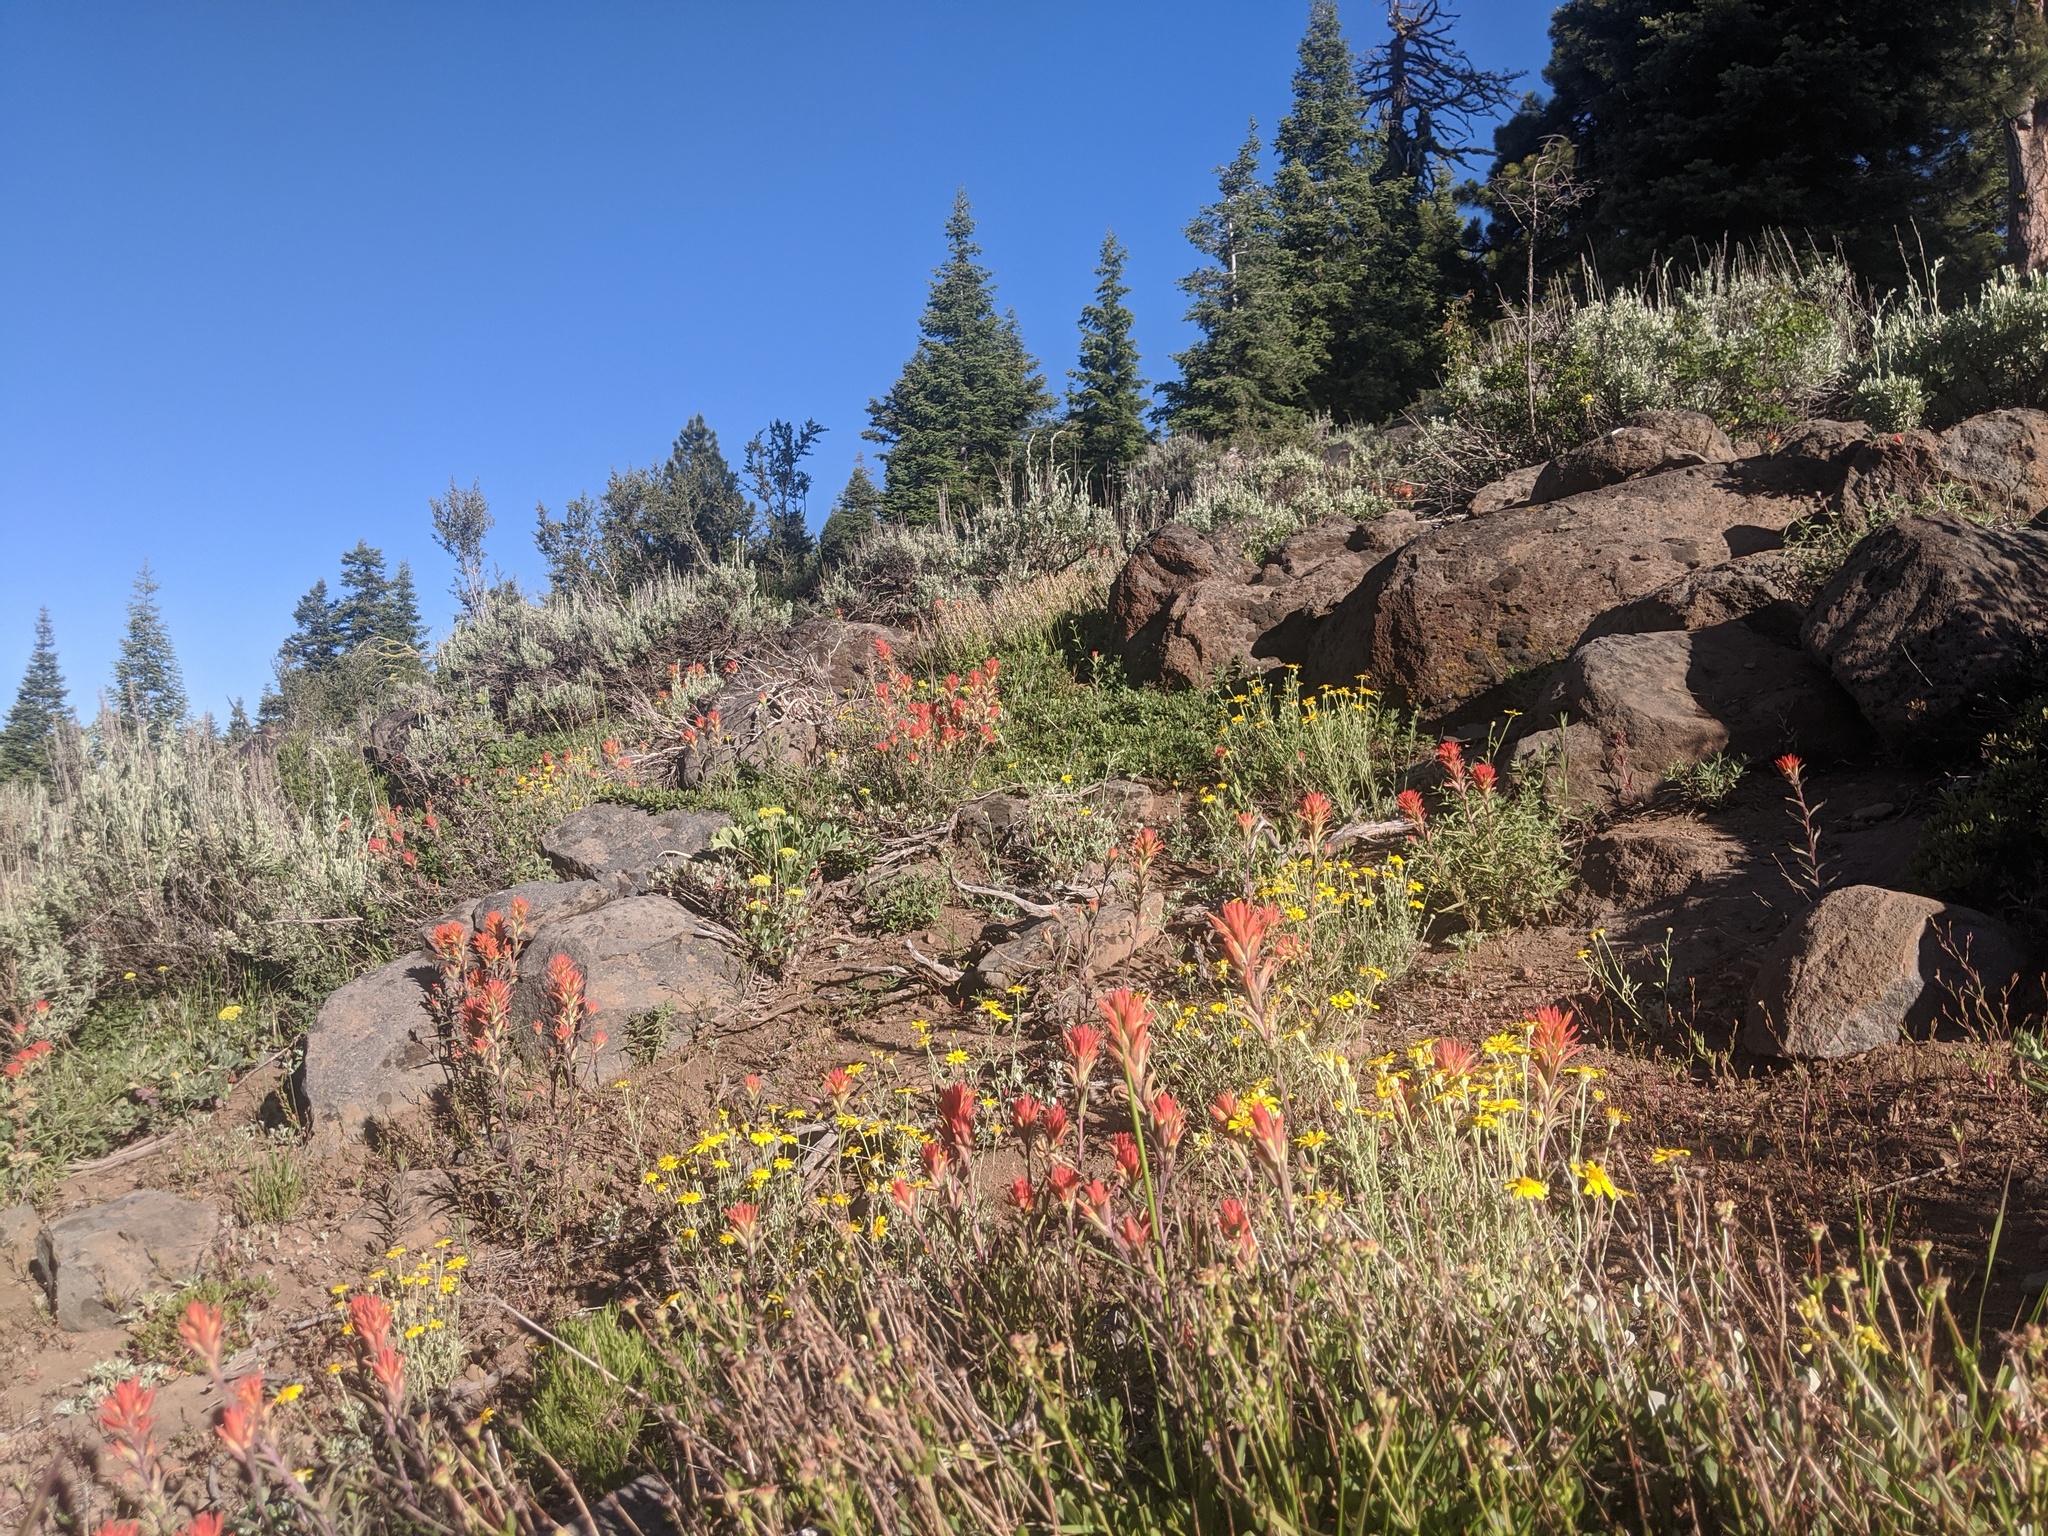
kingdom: Plantae
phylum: Tracheophyta
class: Magnoliopsida
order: Lamiales
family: Orobanchaceae
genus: Castilleja
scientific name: Castilleja applegatei
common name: Wavy-leaf paintbrush
